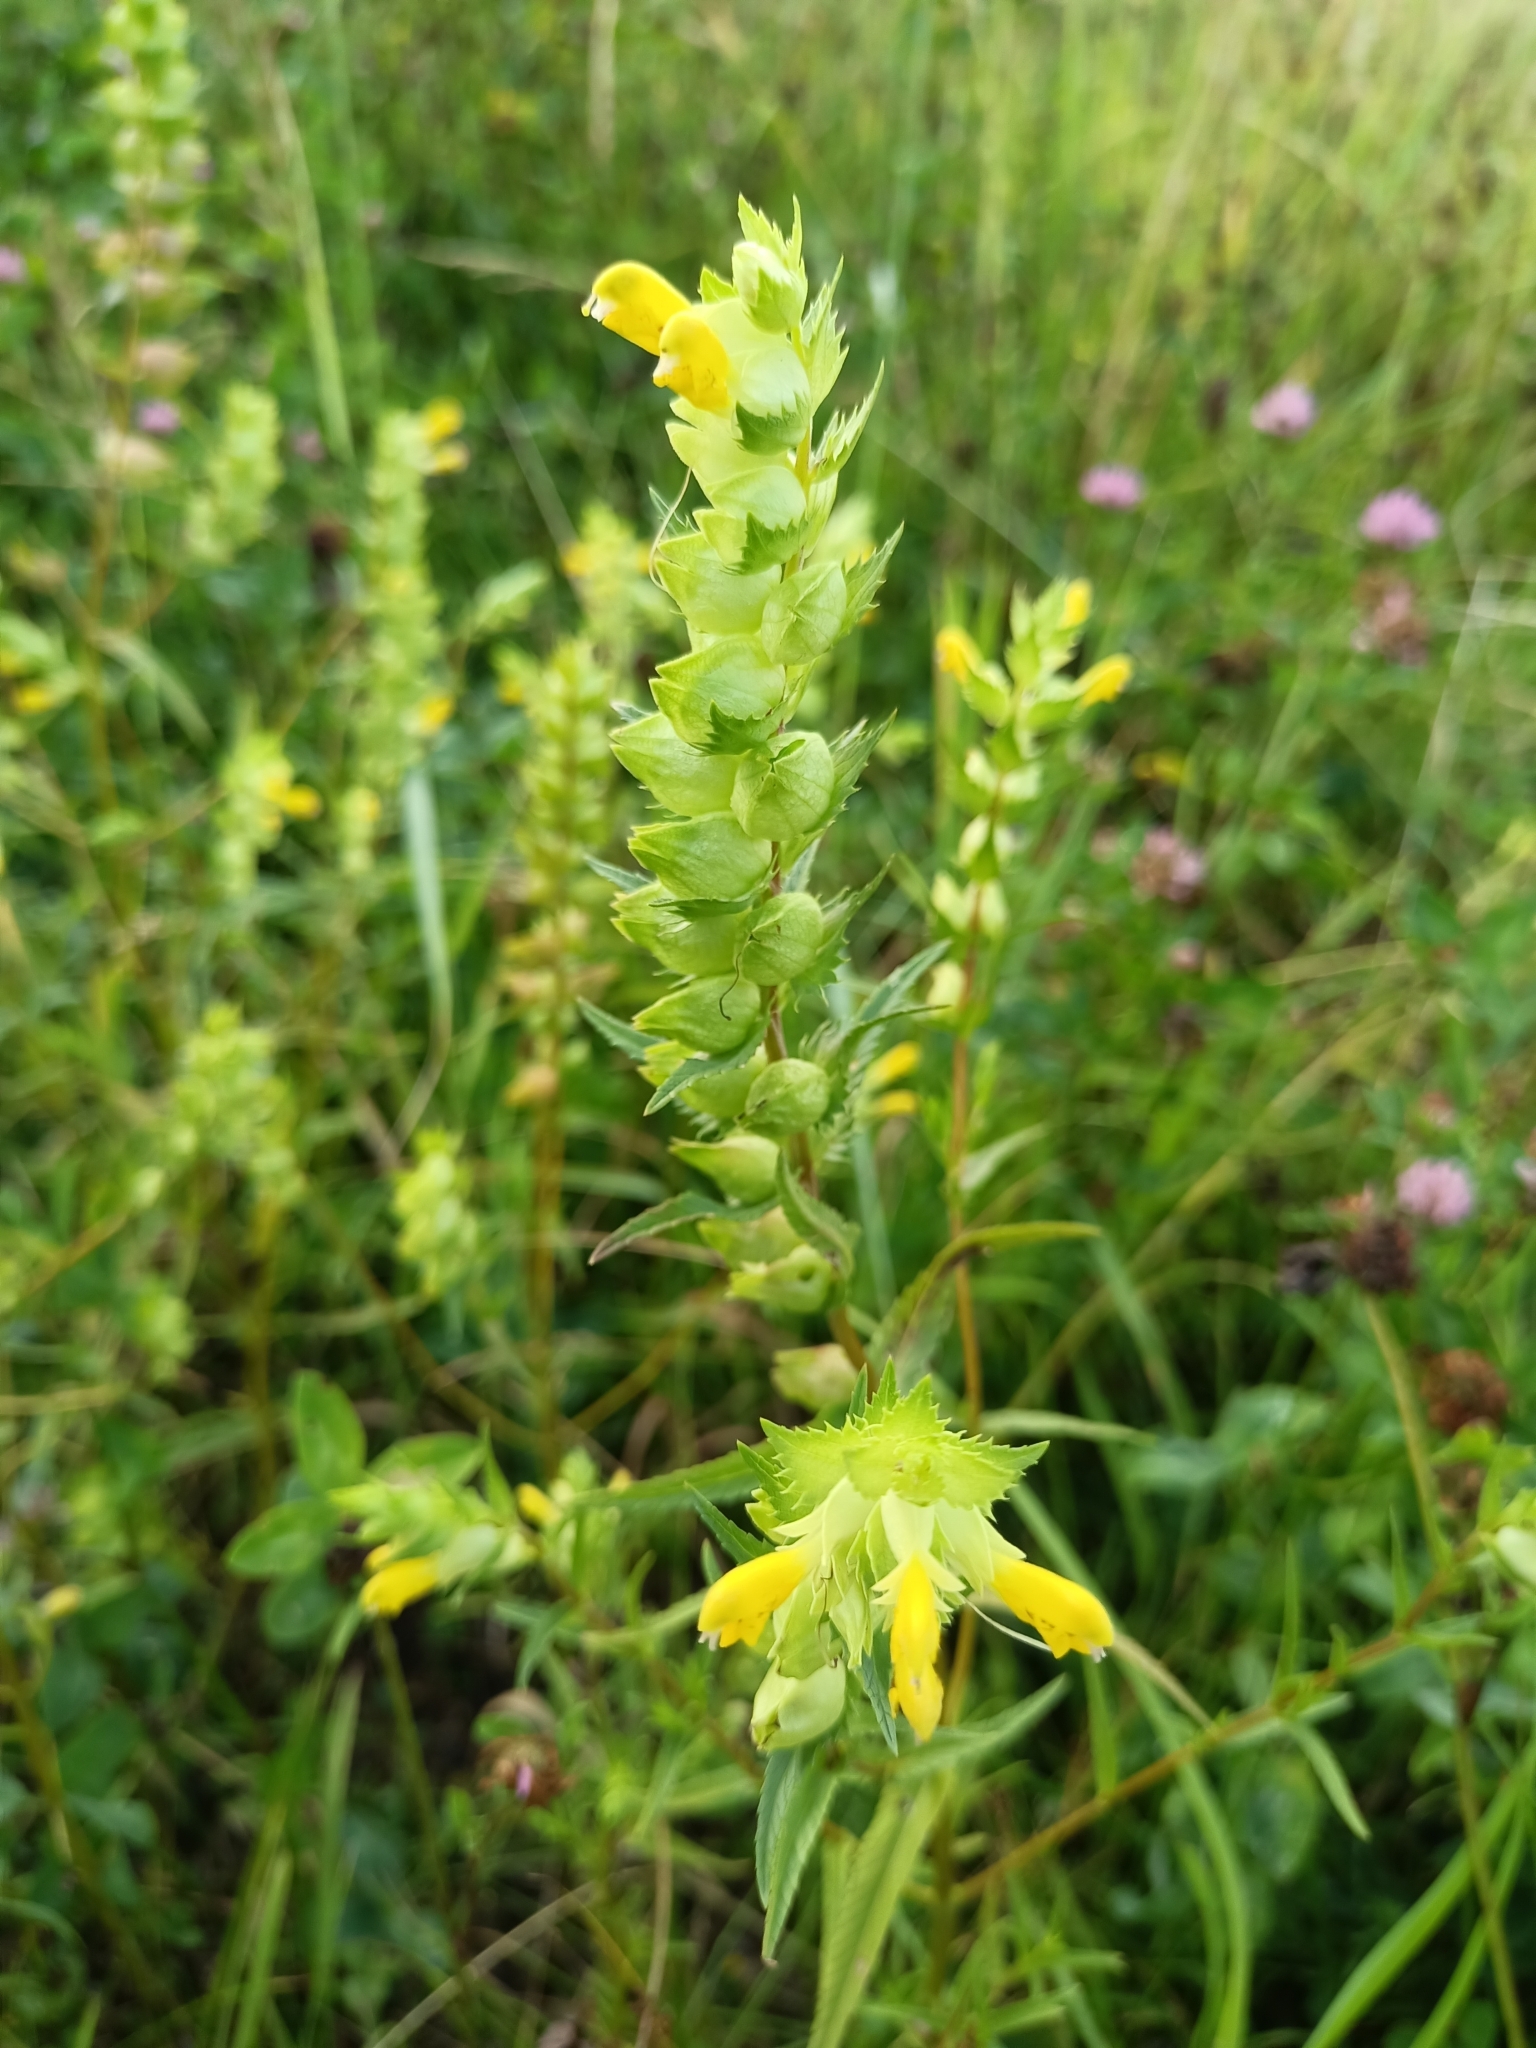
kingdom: Plantae
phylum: Tracheophyta
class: Magnoliopsida
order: Lamiales
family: Orobanchaceae
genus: Rhinanthus
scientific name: Rhinanthus serotinus
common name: Late-flowering yellow rattle
